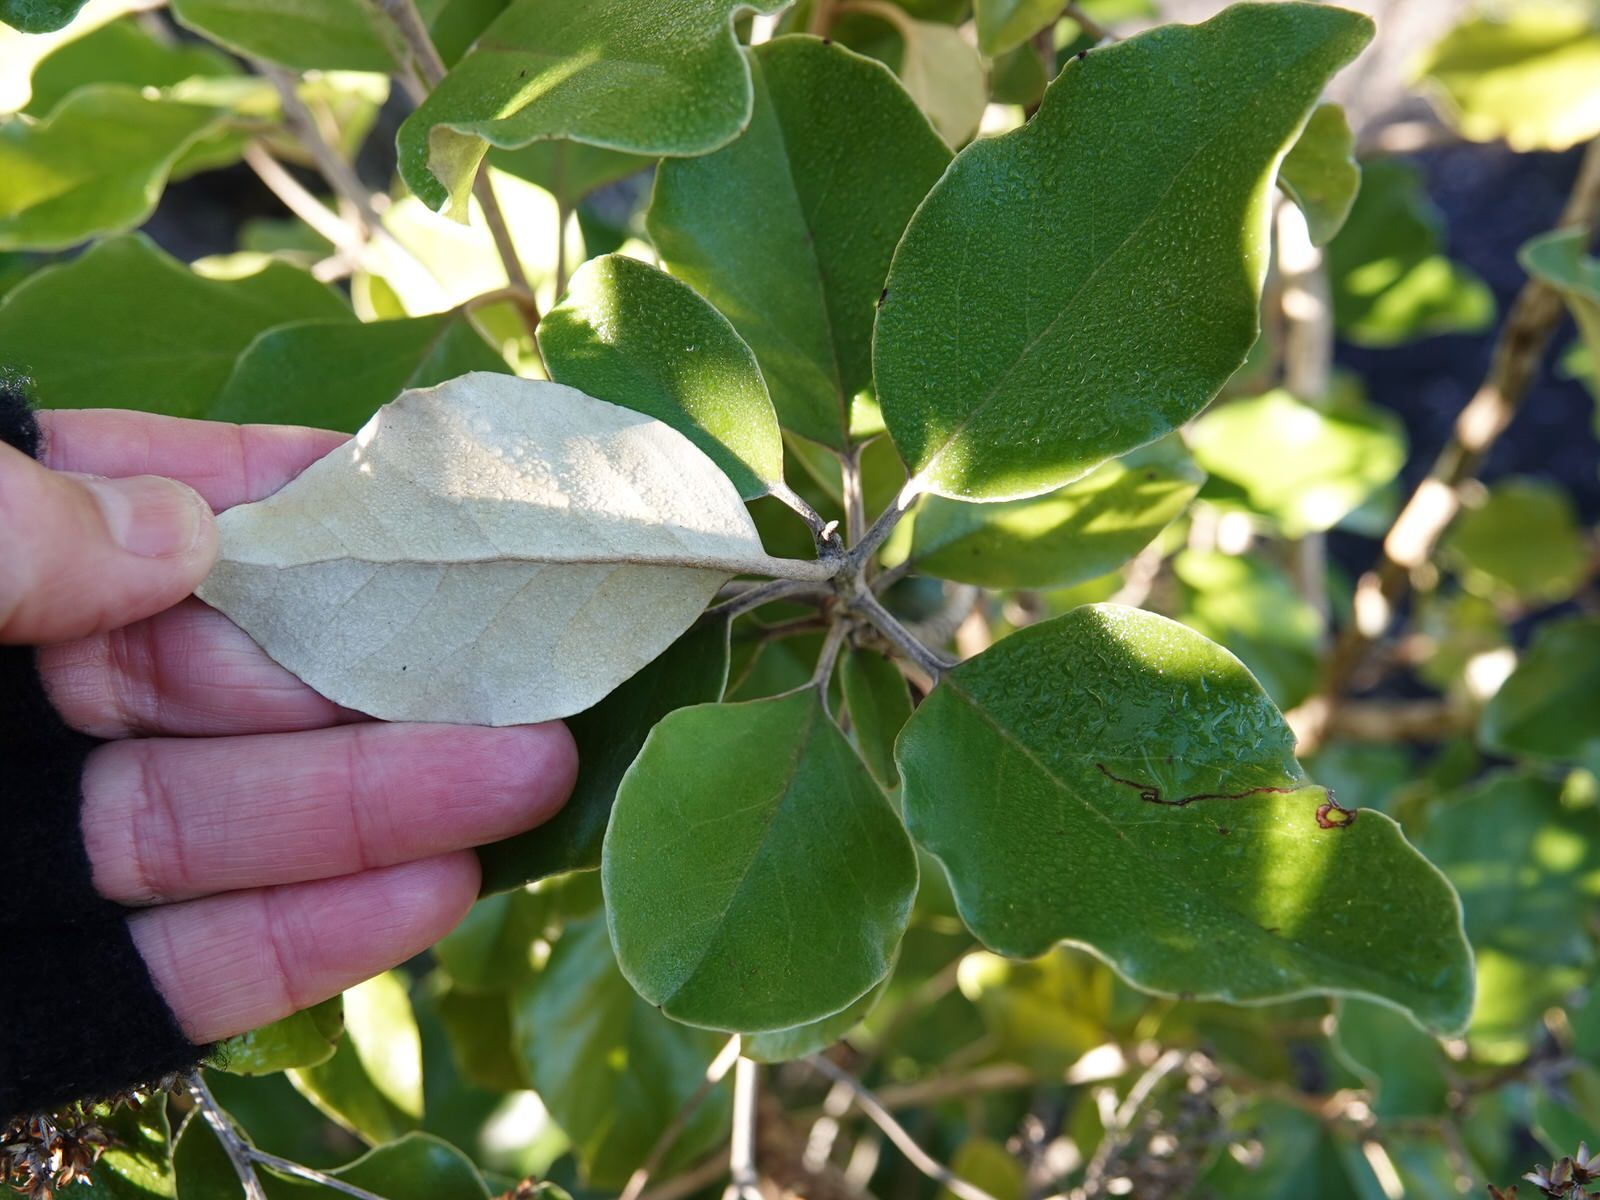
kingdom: Plantae
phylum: Tracheophyta
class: Magnoliopsida
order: Asterales
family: Asteraceae
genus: Olearia
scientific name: Olearia furfuracea
